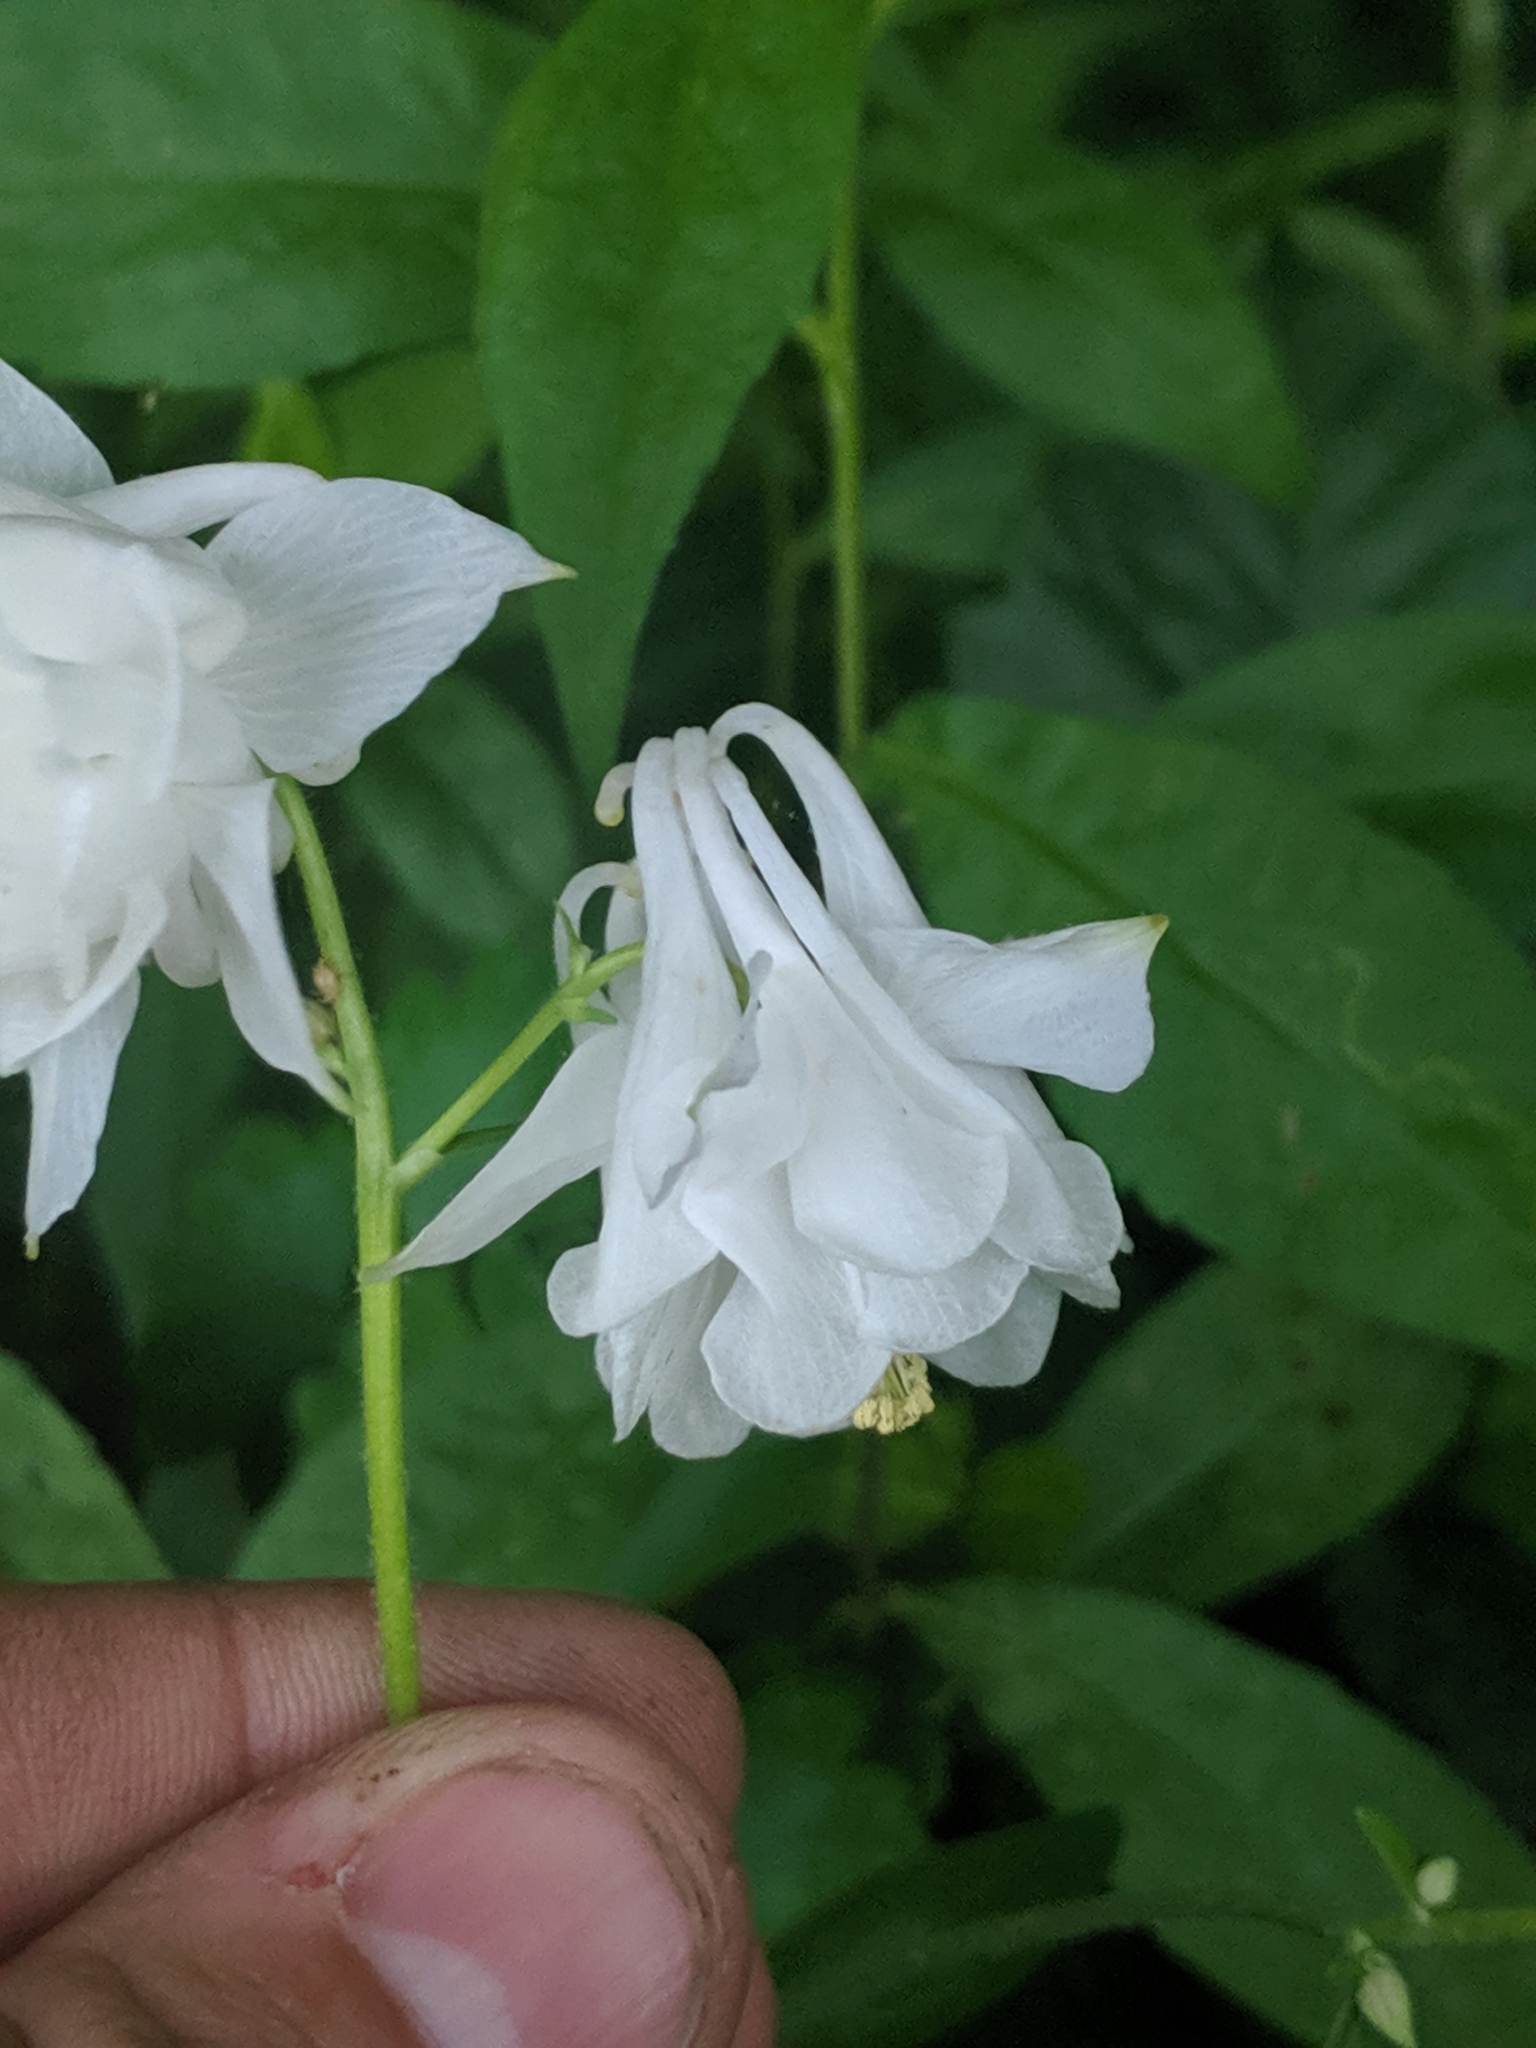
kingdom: Plantae
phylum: Tracheophyta
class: Magnoliopsida
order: Ranunculales
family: Ranunculaceae
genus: Aquilegia
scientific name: Aquilegia vulgaris
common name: Columbine
